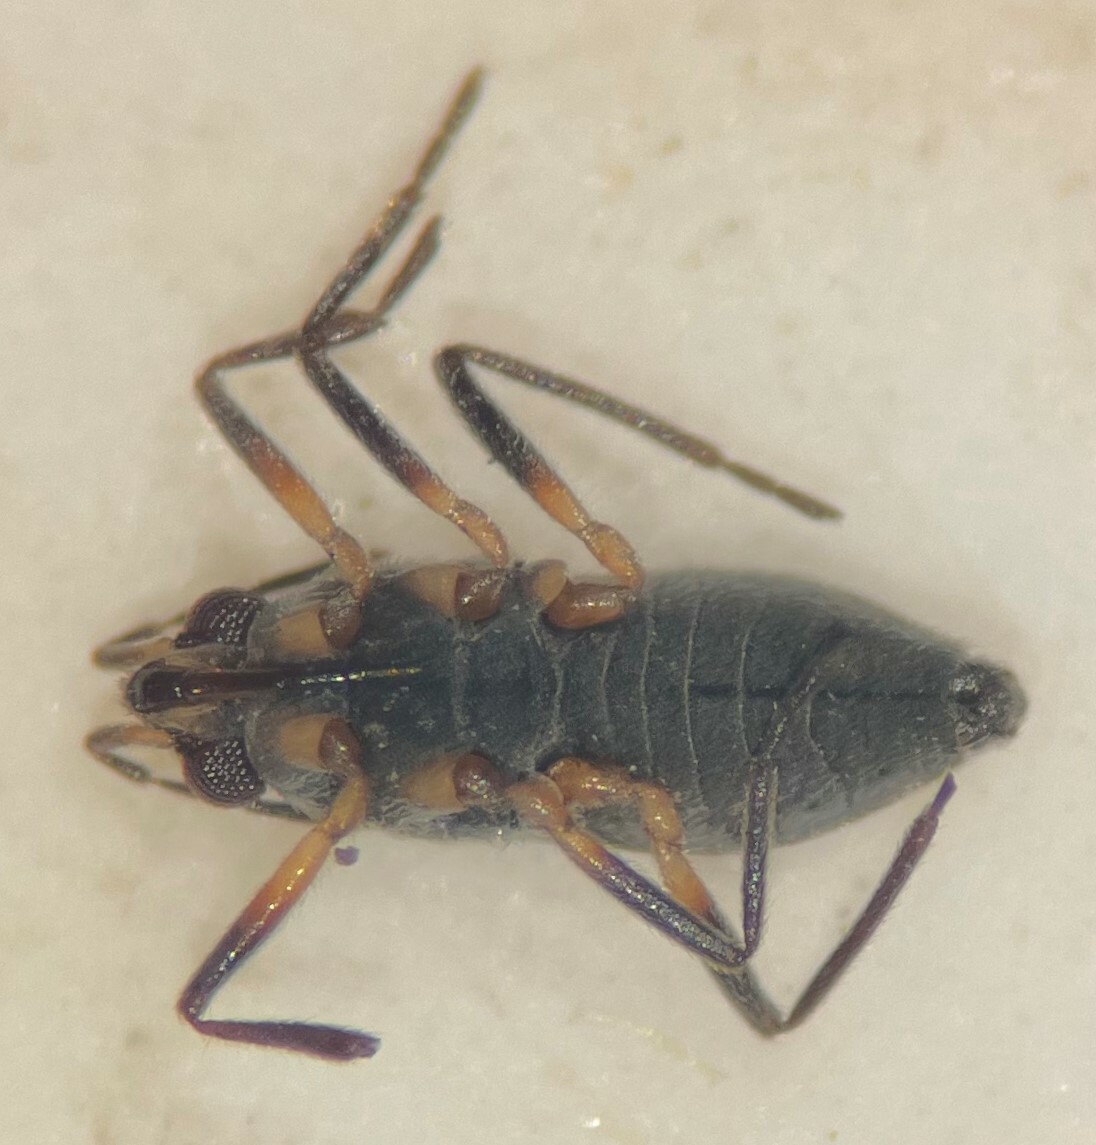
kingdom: Animalia
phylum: Arthropoda
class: Insecta
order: Hemiptera
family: Veliidae
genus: Microvelia
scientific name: Microvelia buenoi
